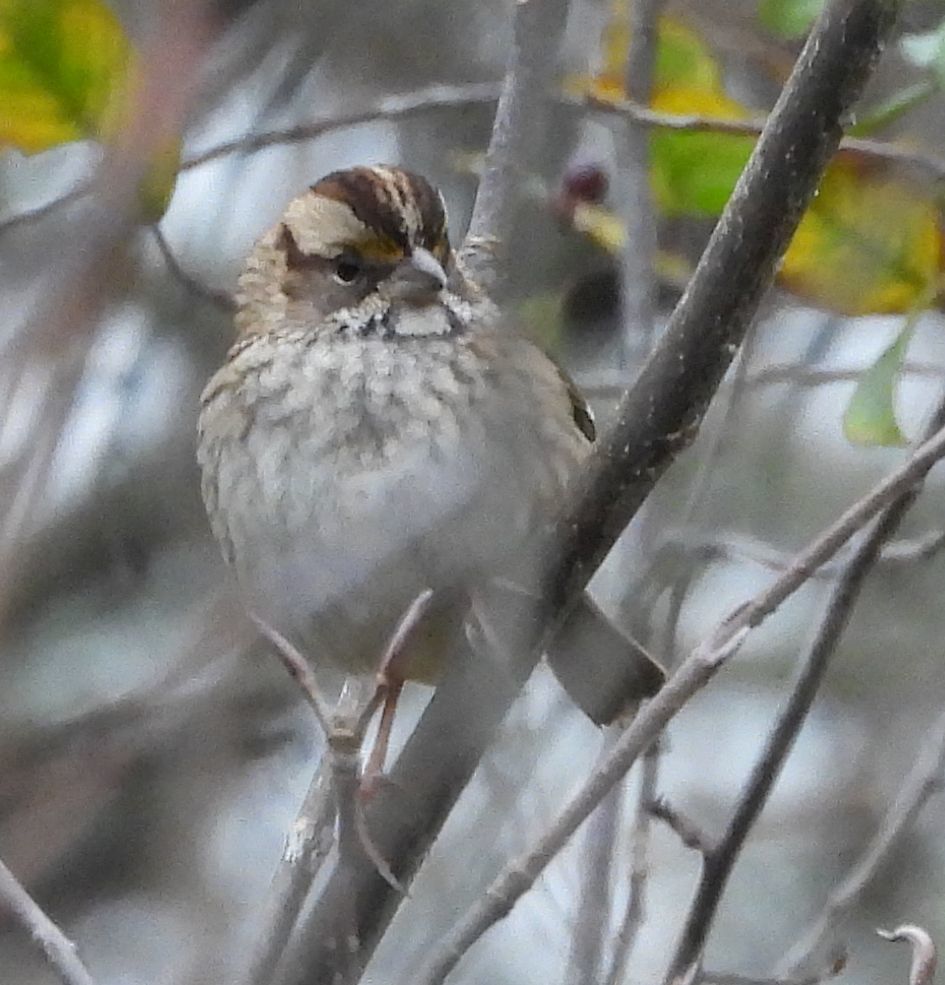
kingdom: Animalia
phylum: Chordata
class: Aves
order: Passeriformes
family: Passerellidae
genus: Zonotrichia
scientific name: Zonotrichia albicollis
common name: White-throated sparrow
